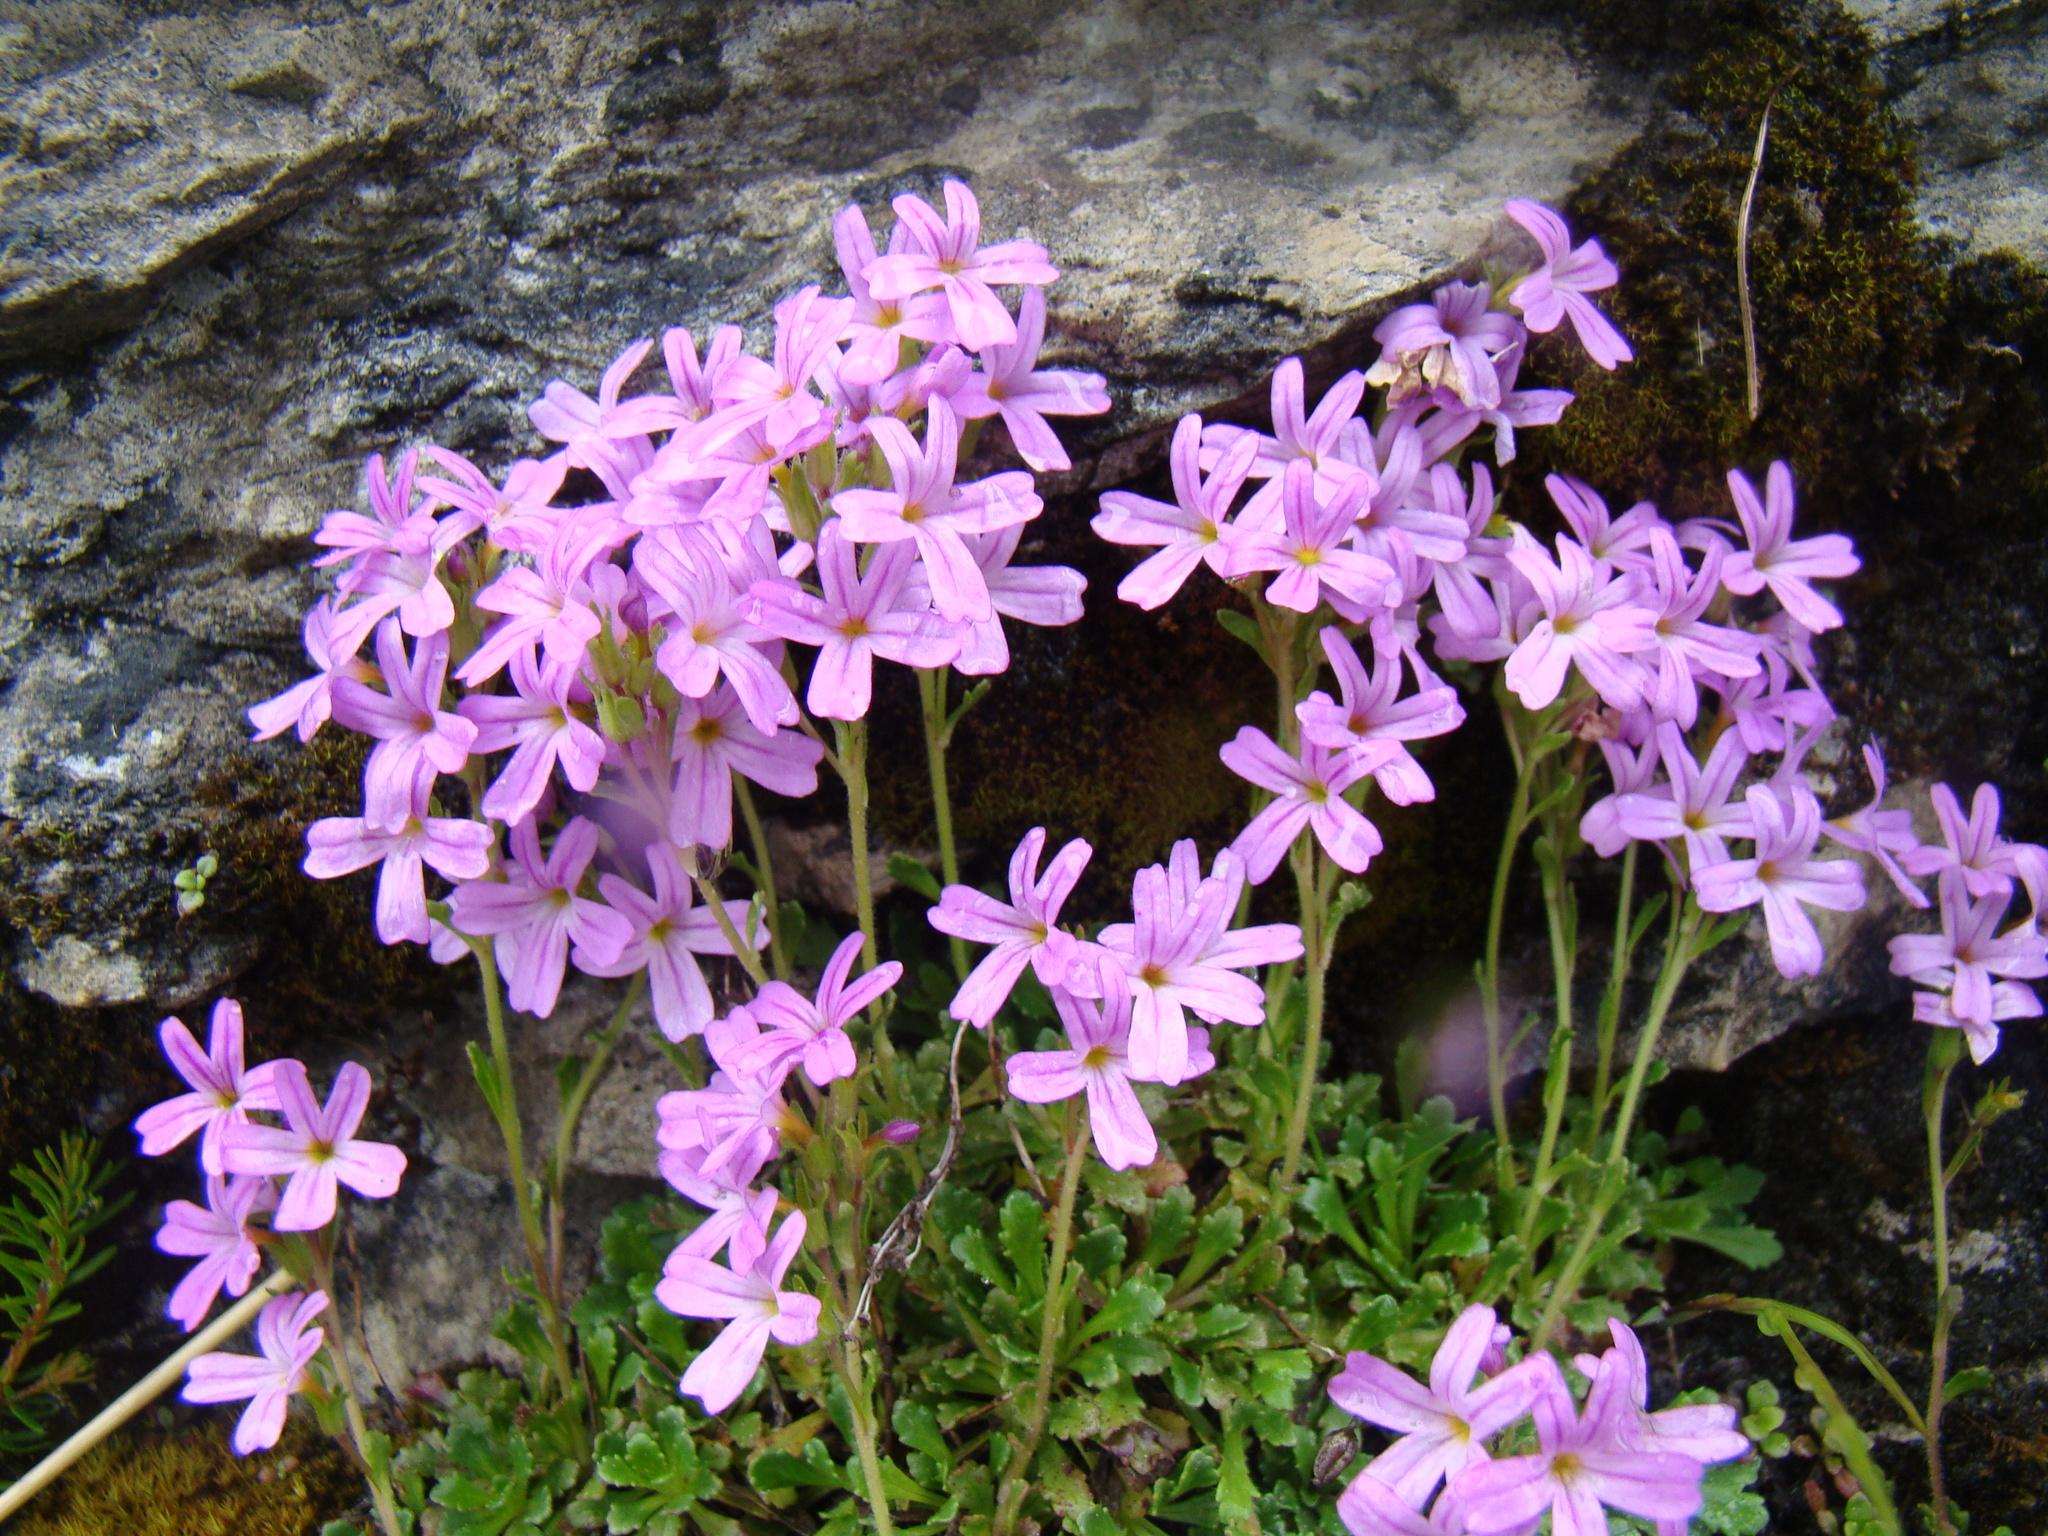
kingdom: Plantae
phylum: Tracheophyta
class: Magnoliopsida
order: Lamiales
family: Plantaginaceae
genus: Erinus
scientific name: Erinus alpinus
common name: Fairy foxglove
